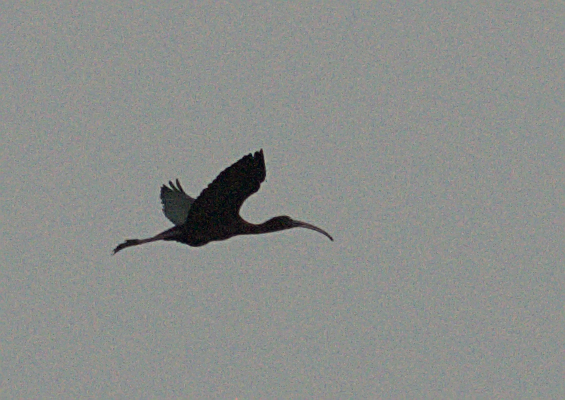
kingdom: Animalia
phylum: Chordata
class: Aves
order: Pelecaniformes
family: Threskiornithidae
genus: Plegadis
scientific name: Plegadis falcinellus
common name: Glossy ibis
